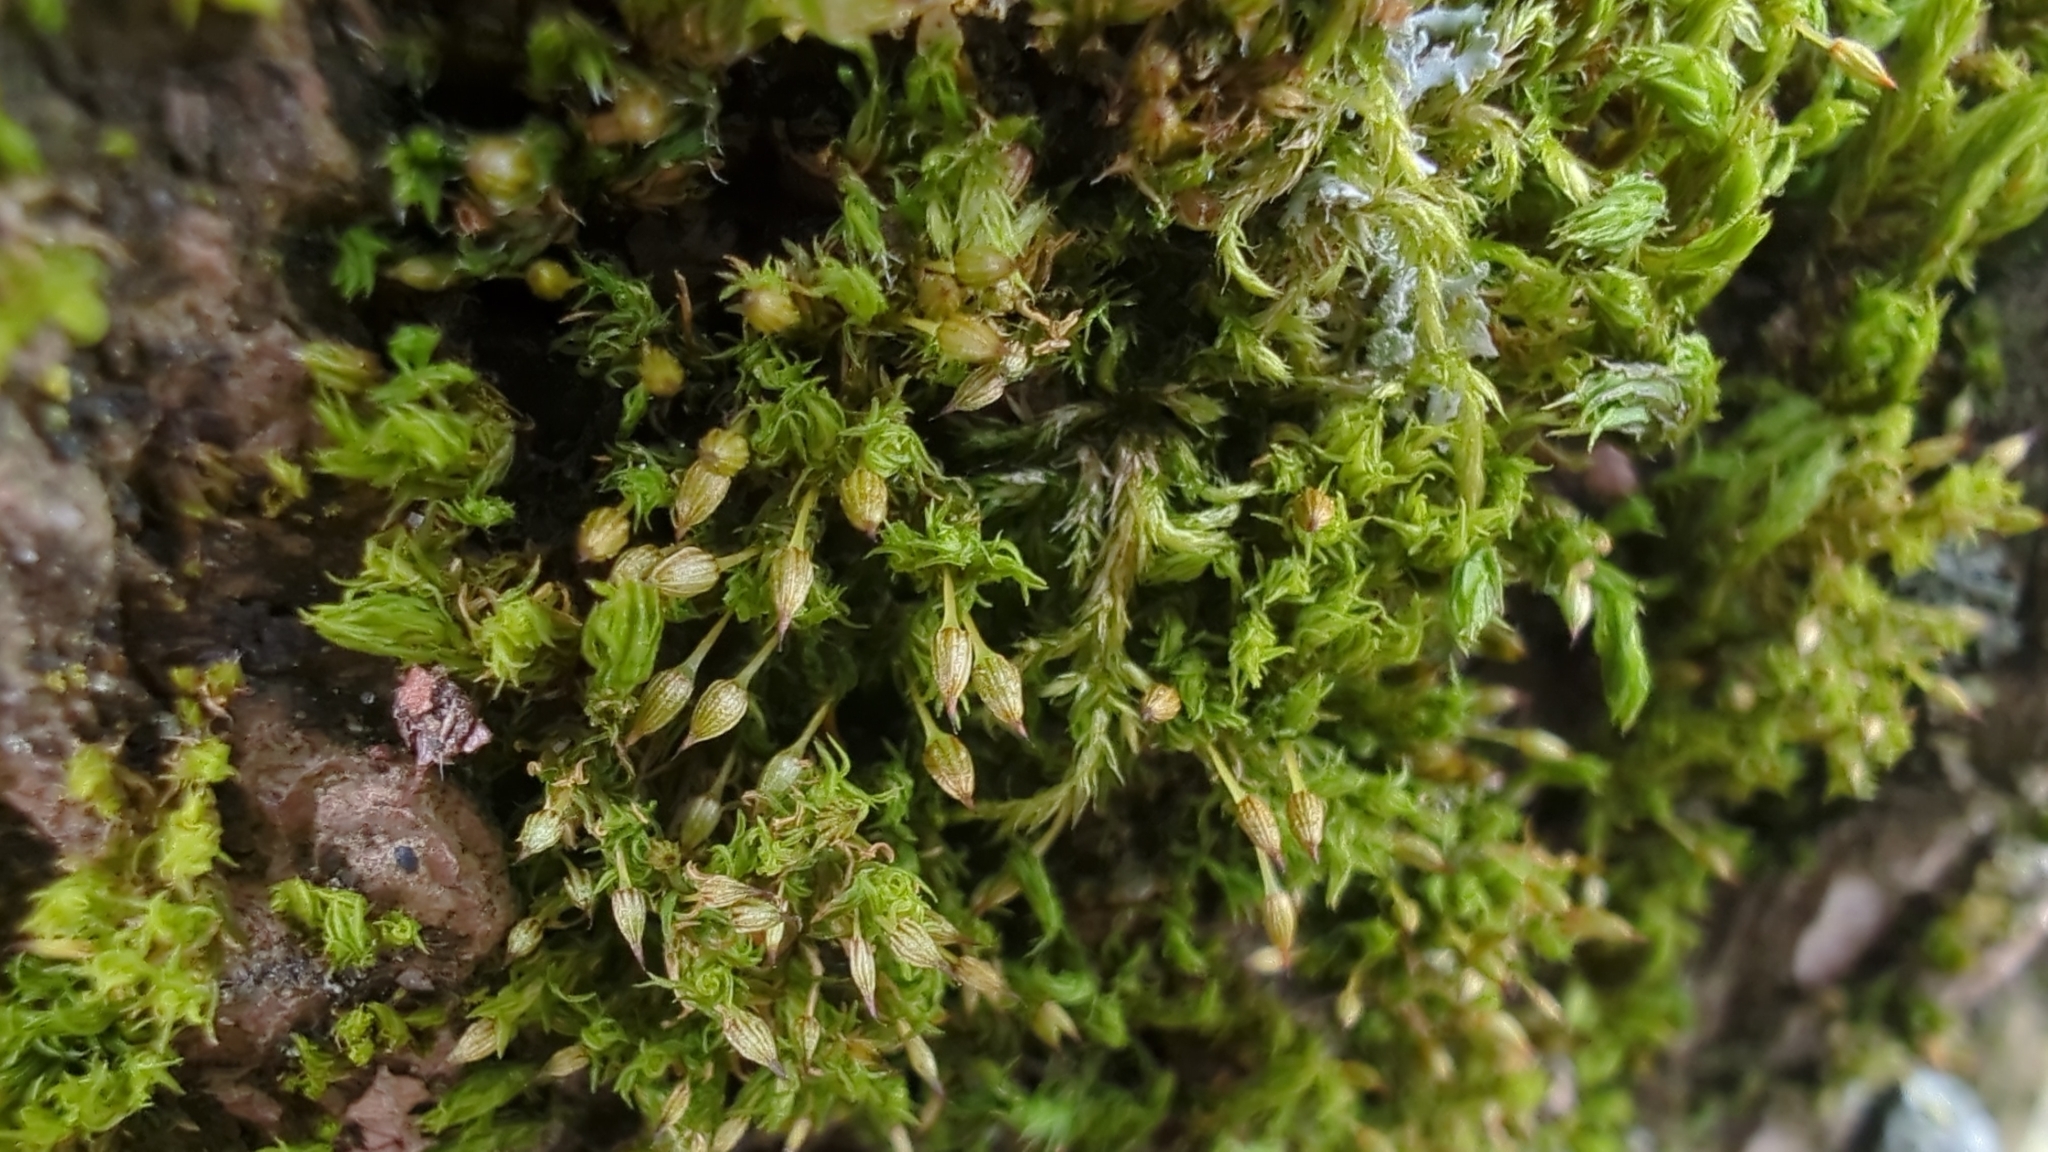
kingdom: Plantae
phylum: Bryophyta
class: Bryopsida
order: Orthotrichales
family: Orthotrichaceae
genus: Orthotrichum
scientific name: Orthotrichum pulchellum
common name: Elegant bristle-moss
